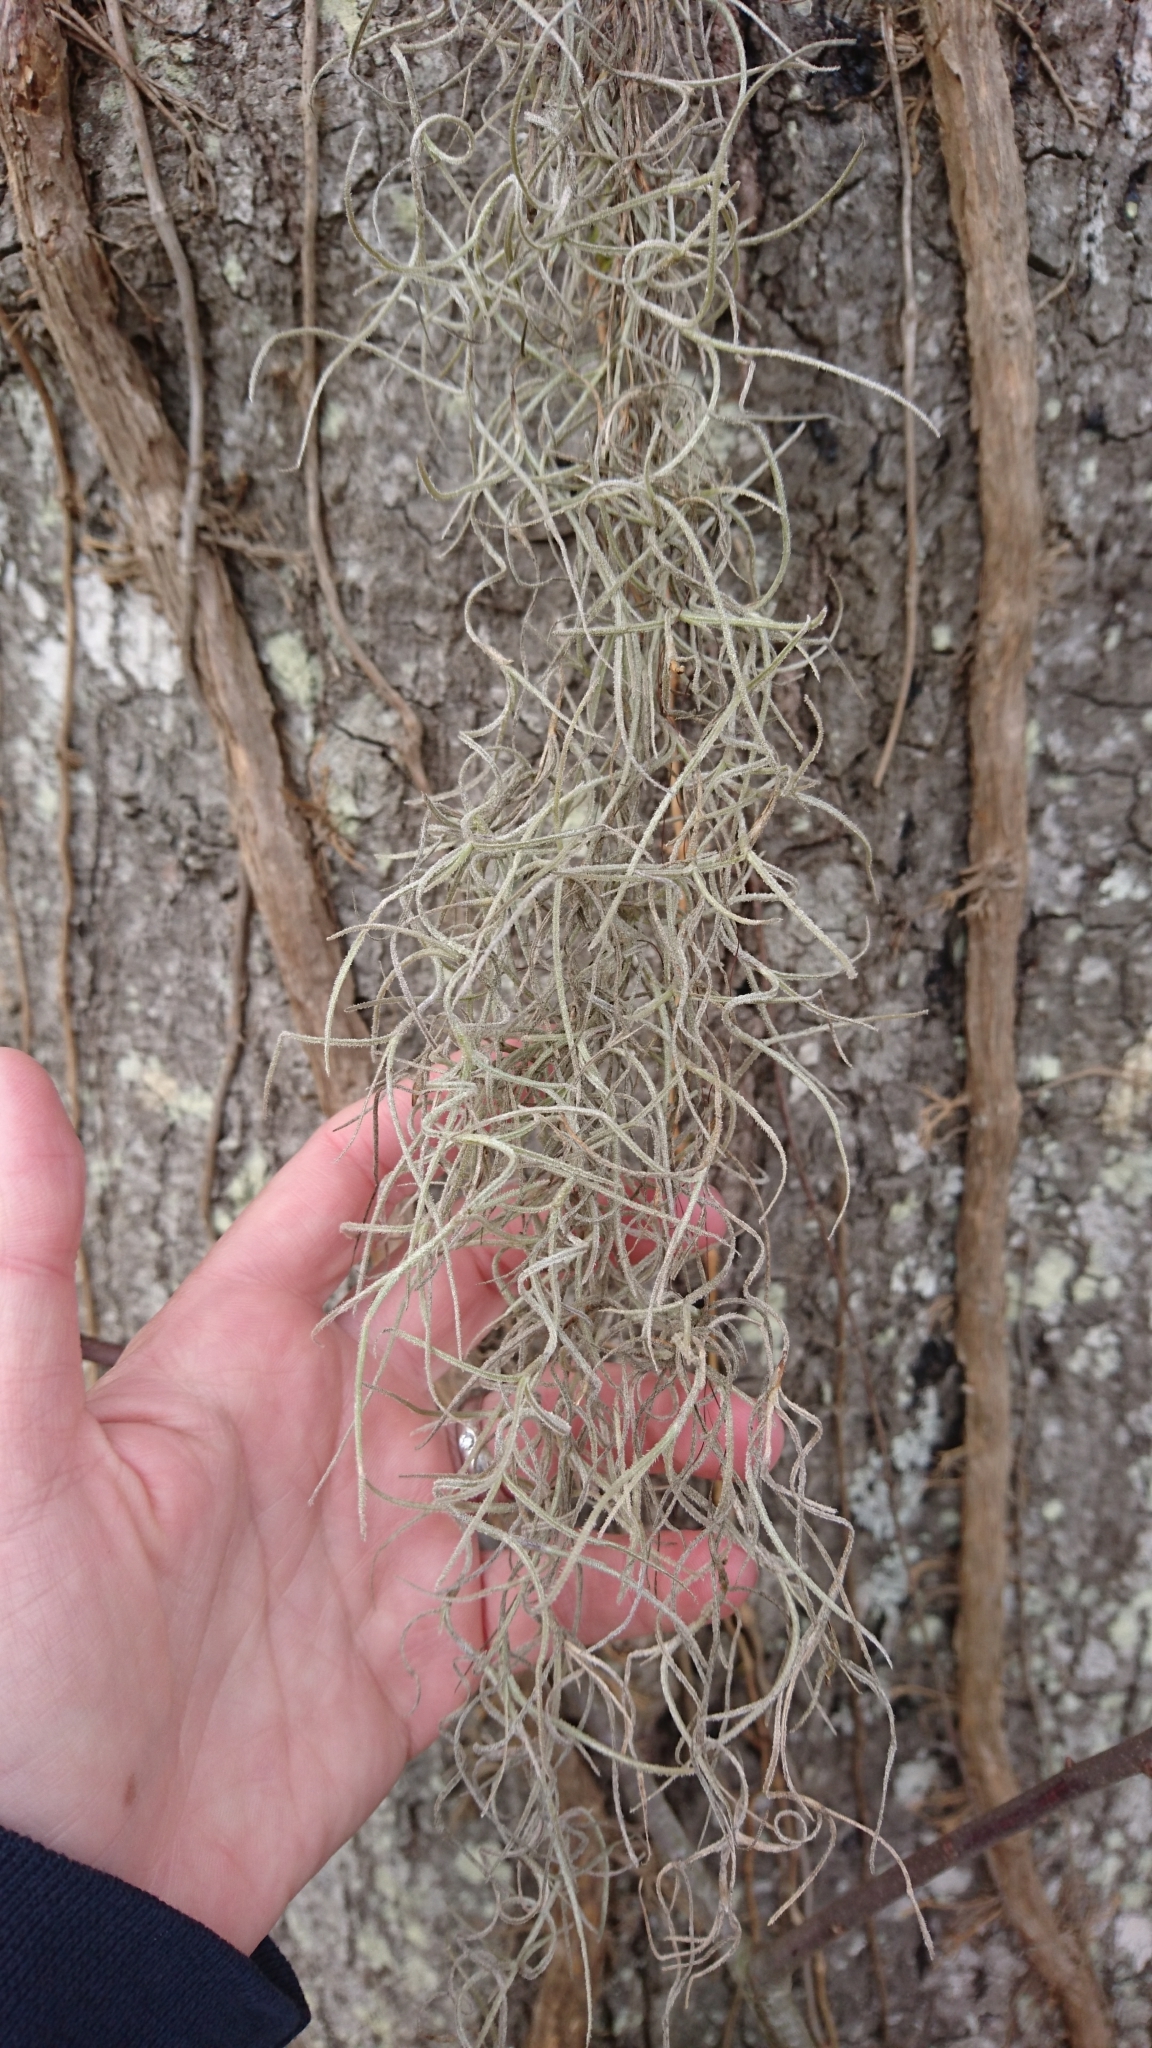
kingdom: Plantae
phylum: Tracheophyta
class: Liliopsida
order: Poales
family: Bromeliaceae
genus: Tillandsia
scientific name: Tillandsia usneoides
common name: Spanish moss
